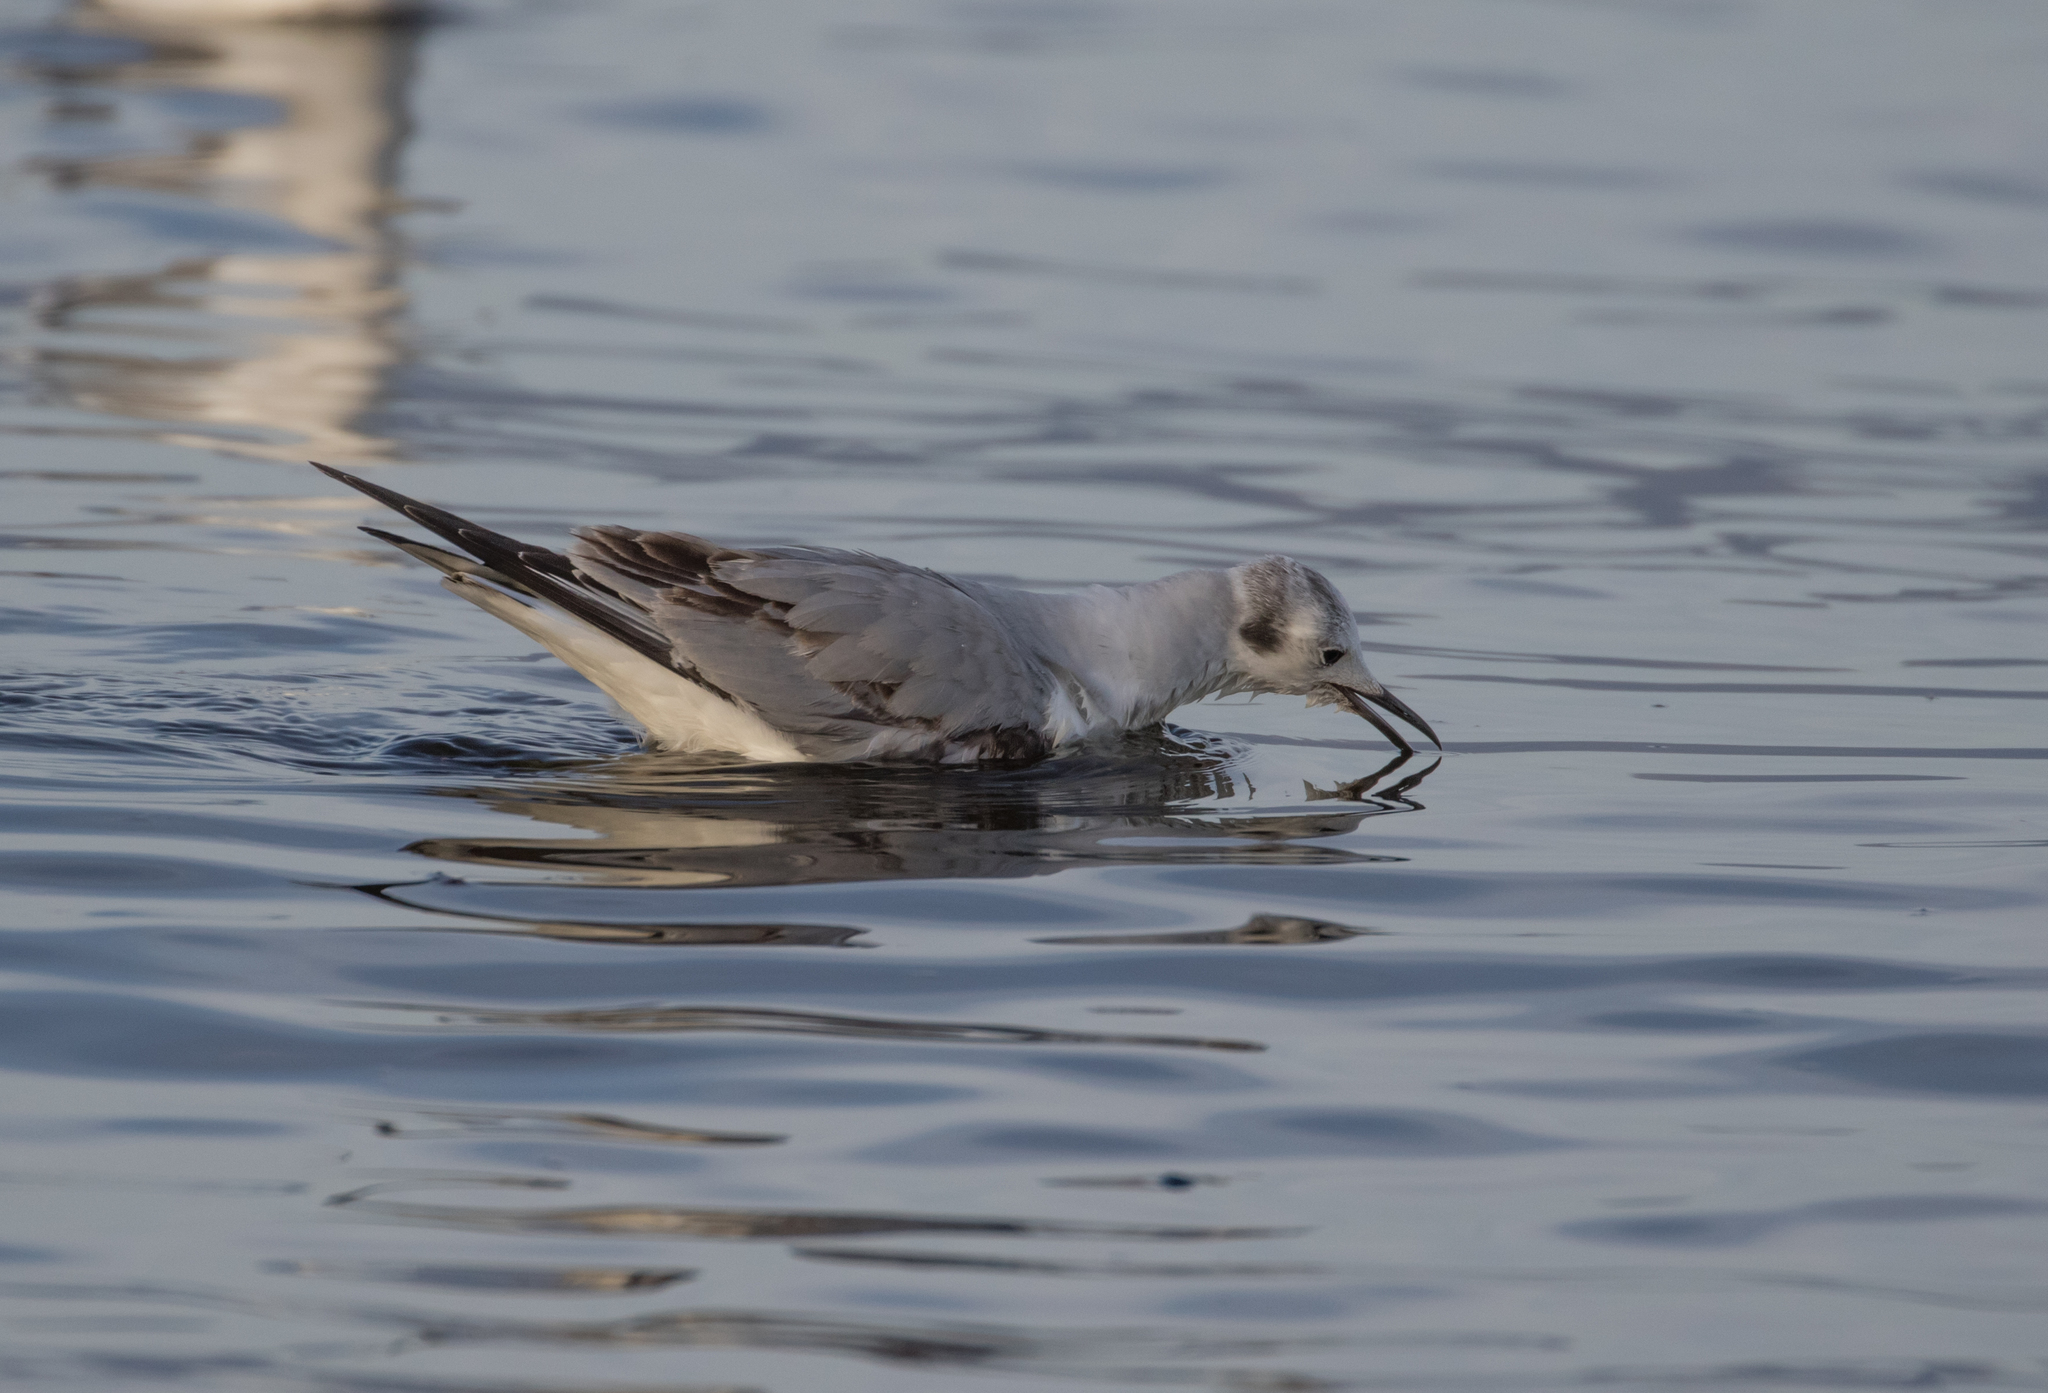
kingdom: Animalia
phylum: Chordata
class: Aves
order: Charadriiformes
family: Laridae
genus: Chroicocephalus
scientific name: Chroicocephalus philadelphia
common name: Bonaparte's gull
